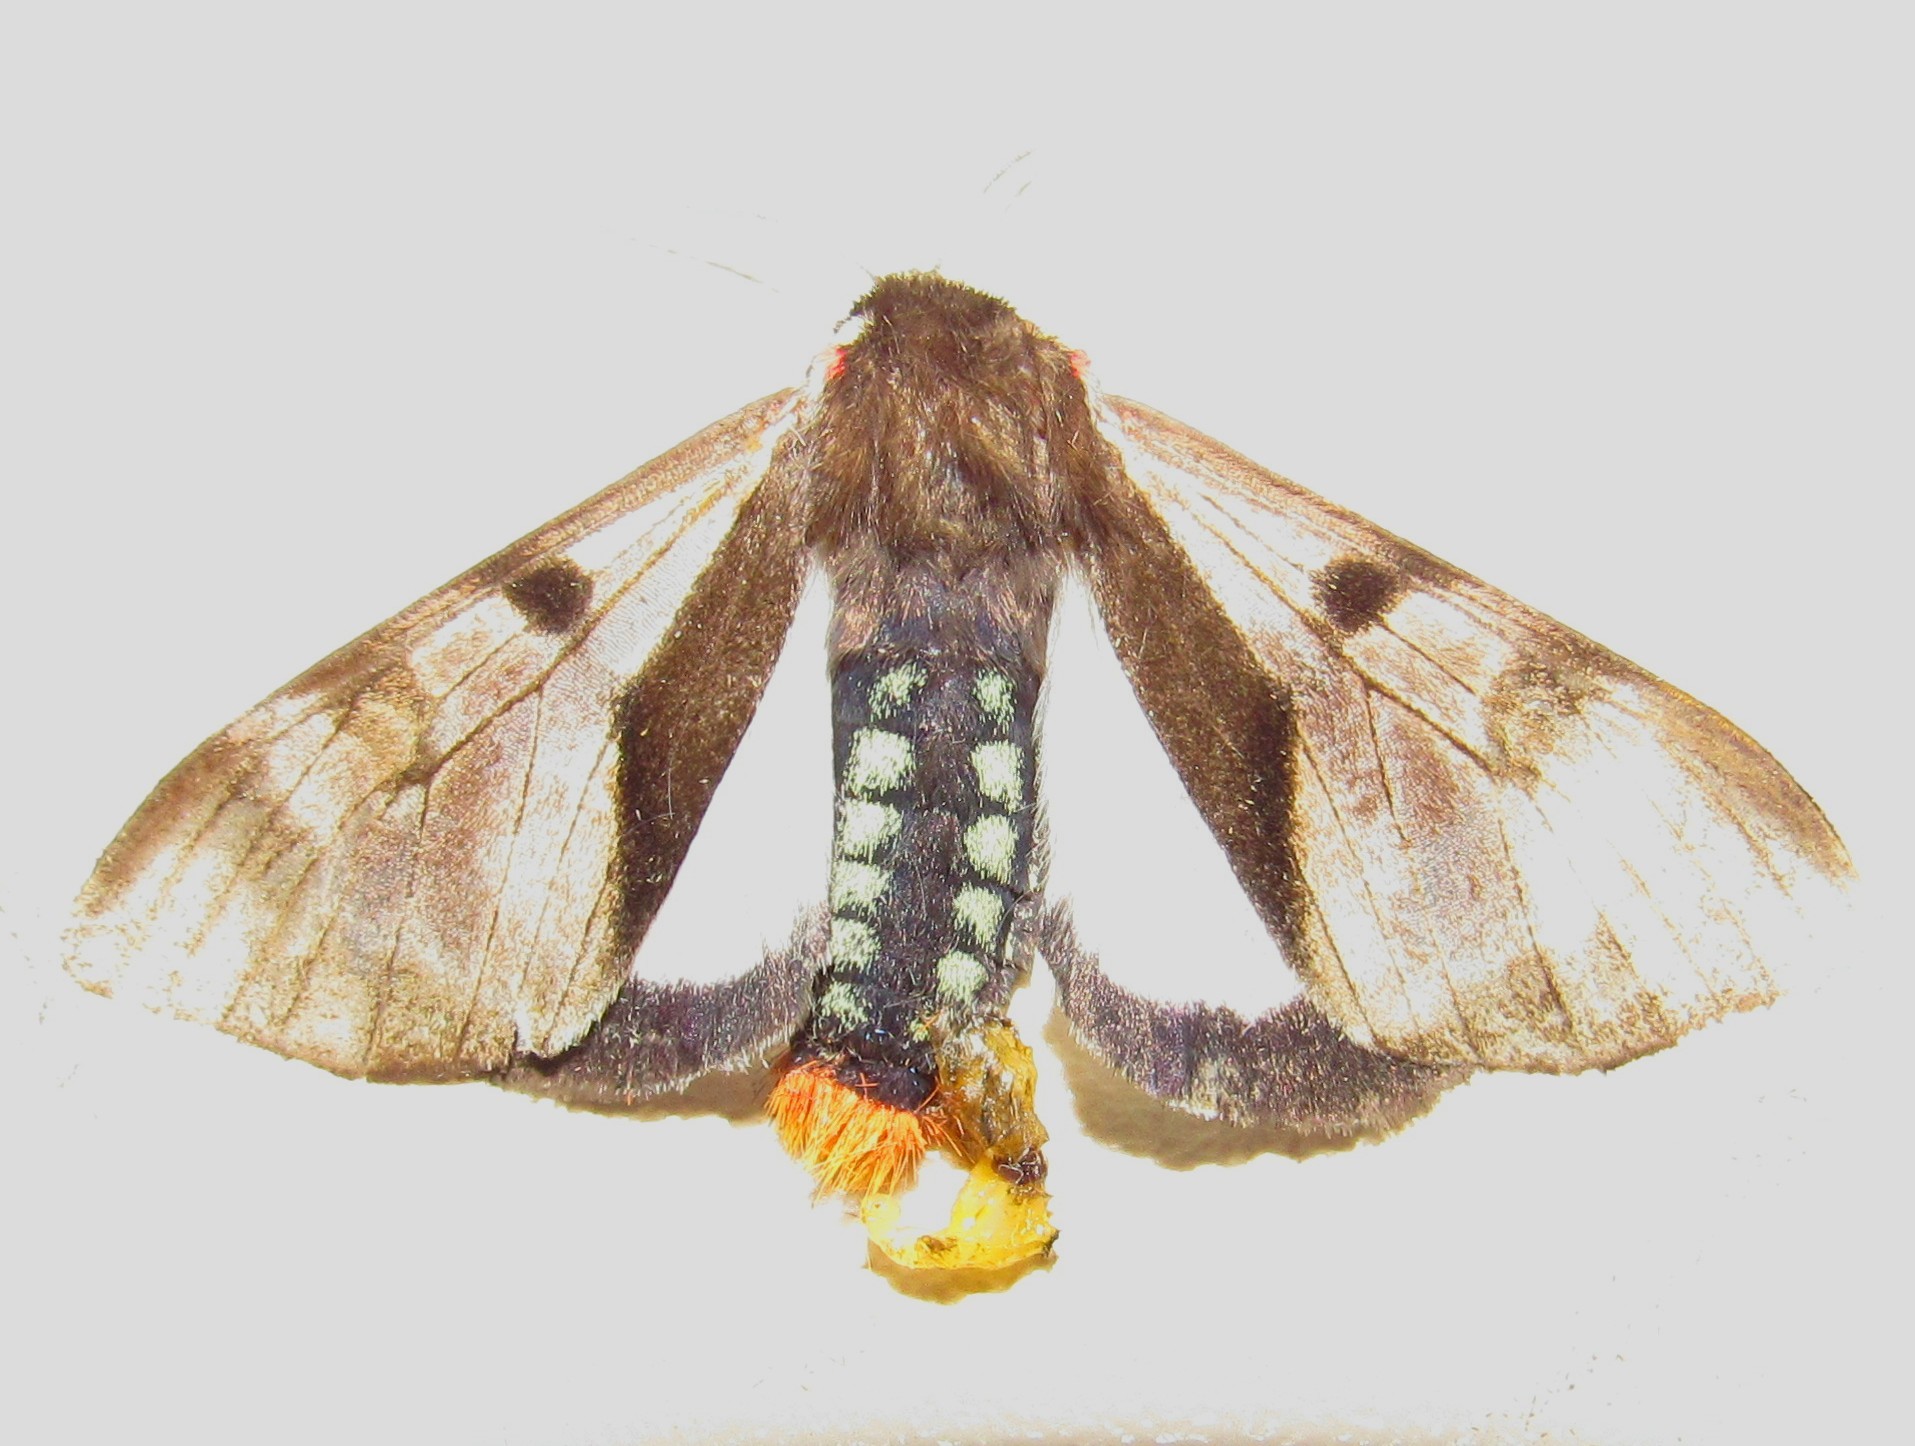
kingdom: Animalia
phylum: Arthropoda
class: Insecta
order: Lepidoptera
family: Erebidae
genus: Dysschema
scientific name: Dysschema subapicalis
